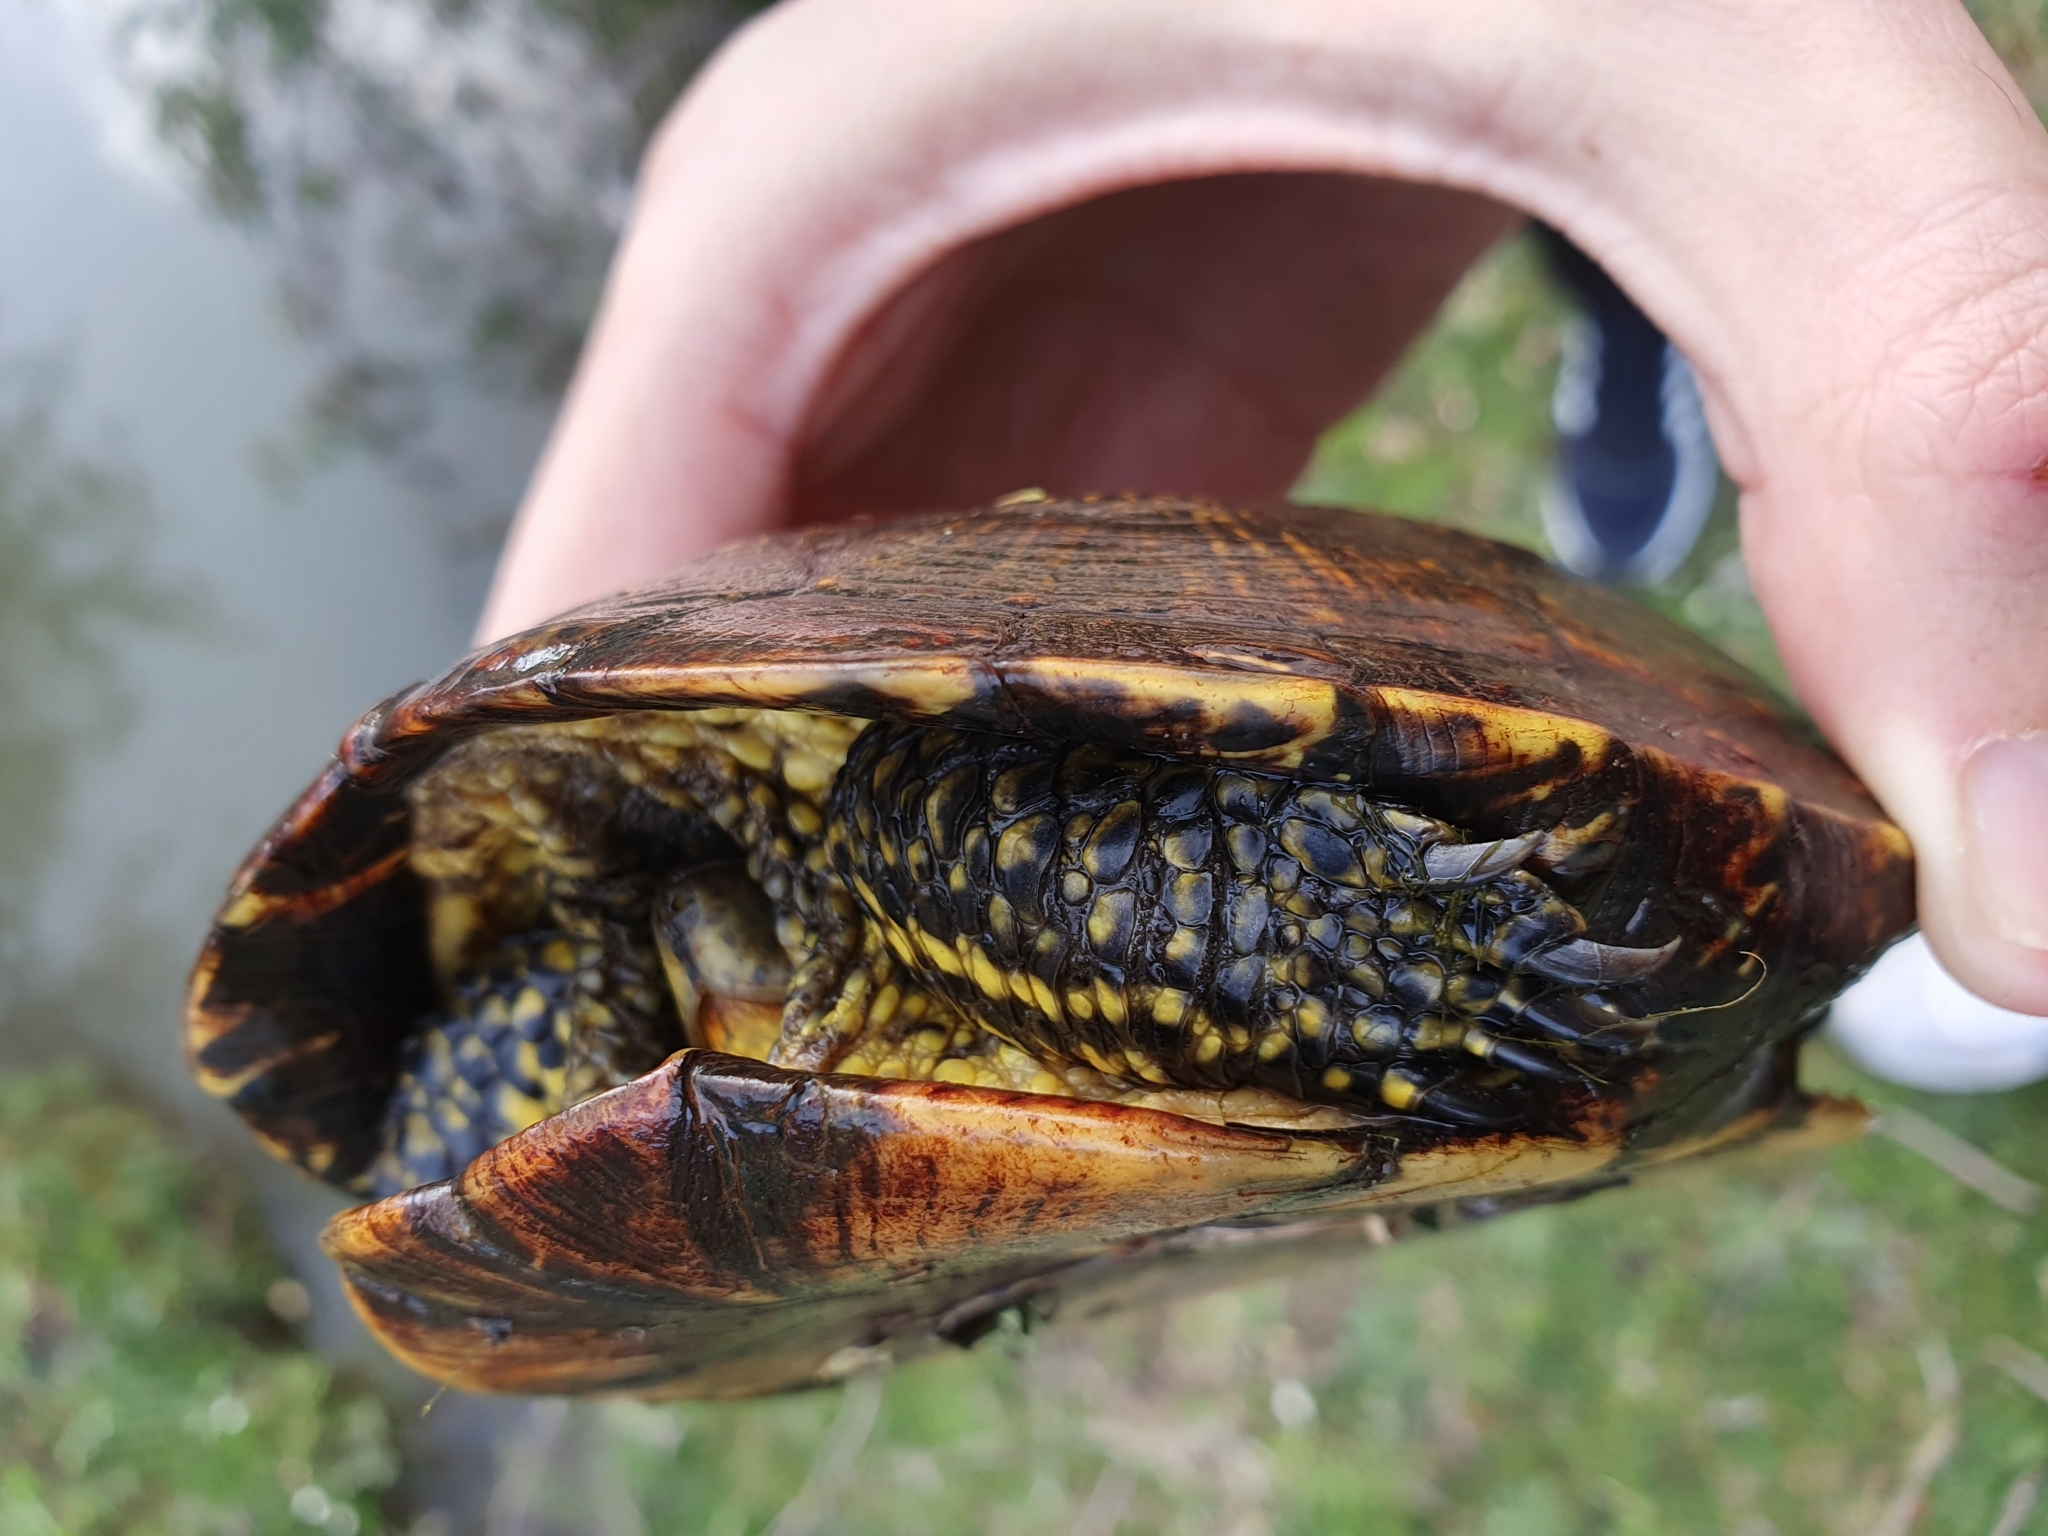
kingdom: Animalia
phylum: Chordata
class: Testudines
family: Emydidae
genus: Emys
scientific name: Emys orbicularis
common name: European pond turtle
